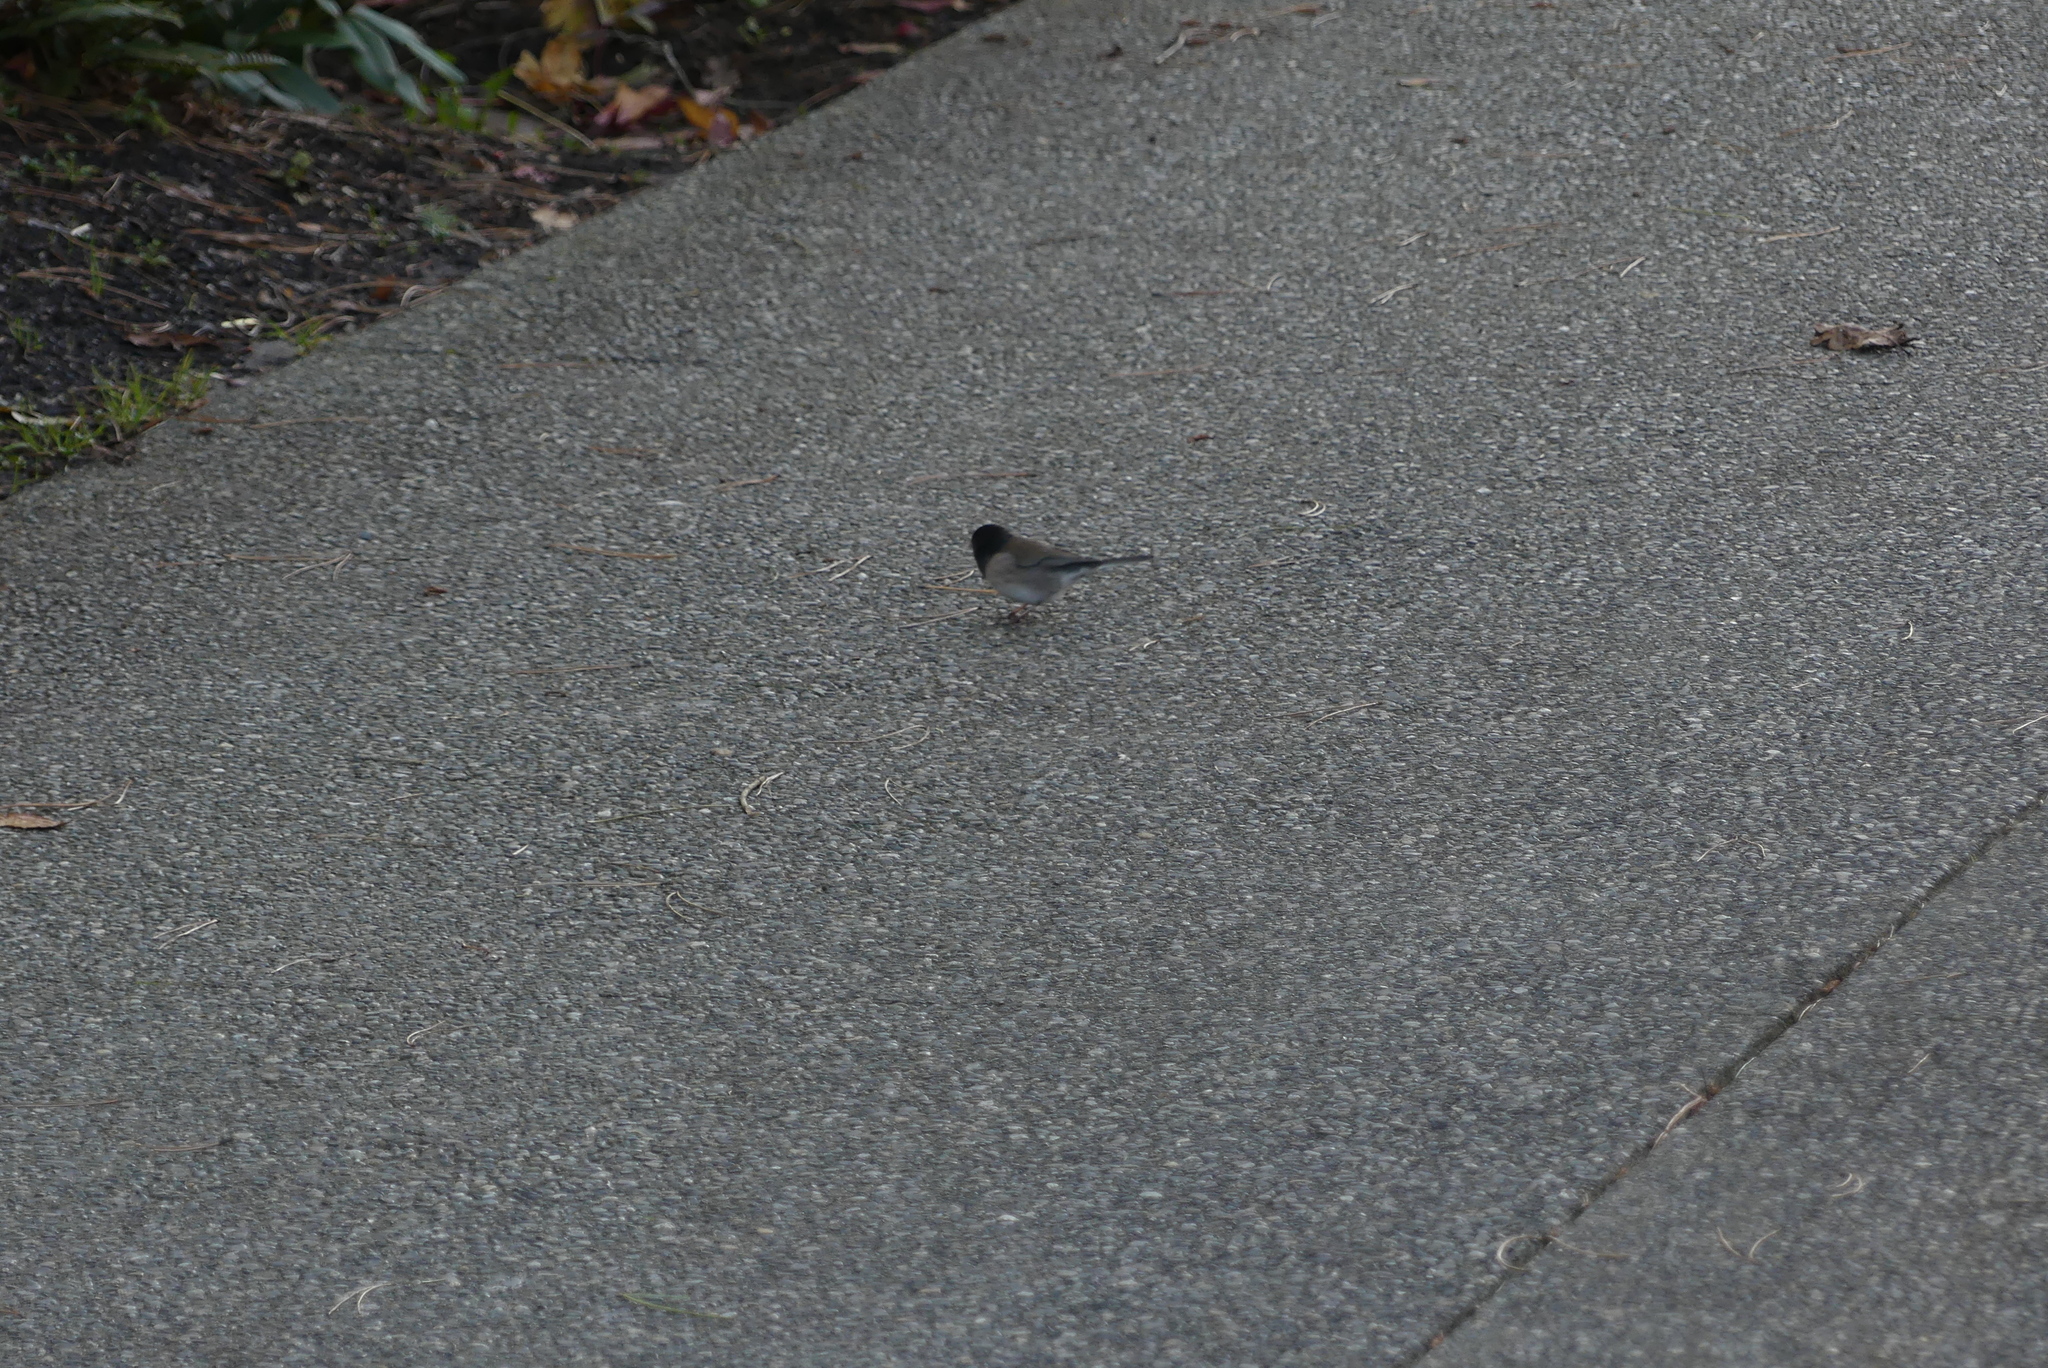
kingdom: Animalia
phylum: Chordata
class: Aves
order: Passeriformes
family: Passerellidae
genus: Junco
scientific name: Junco hyemalis
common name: Dark-eyed junco
